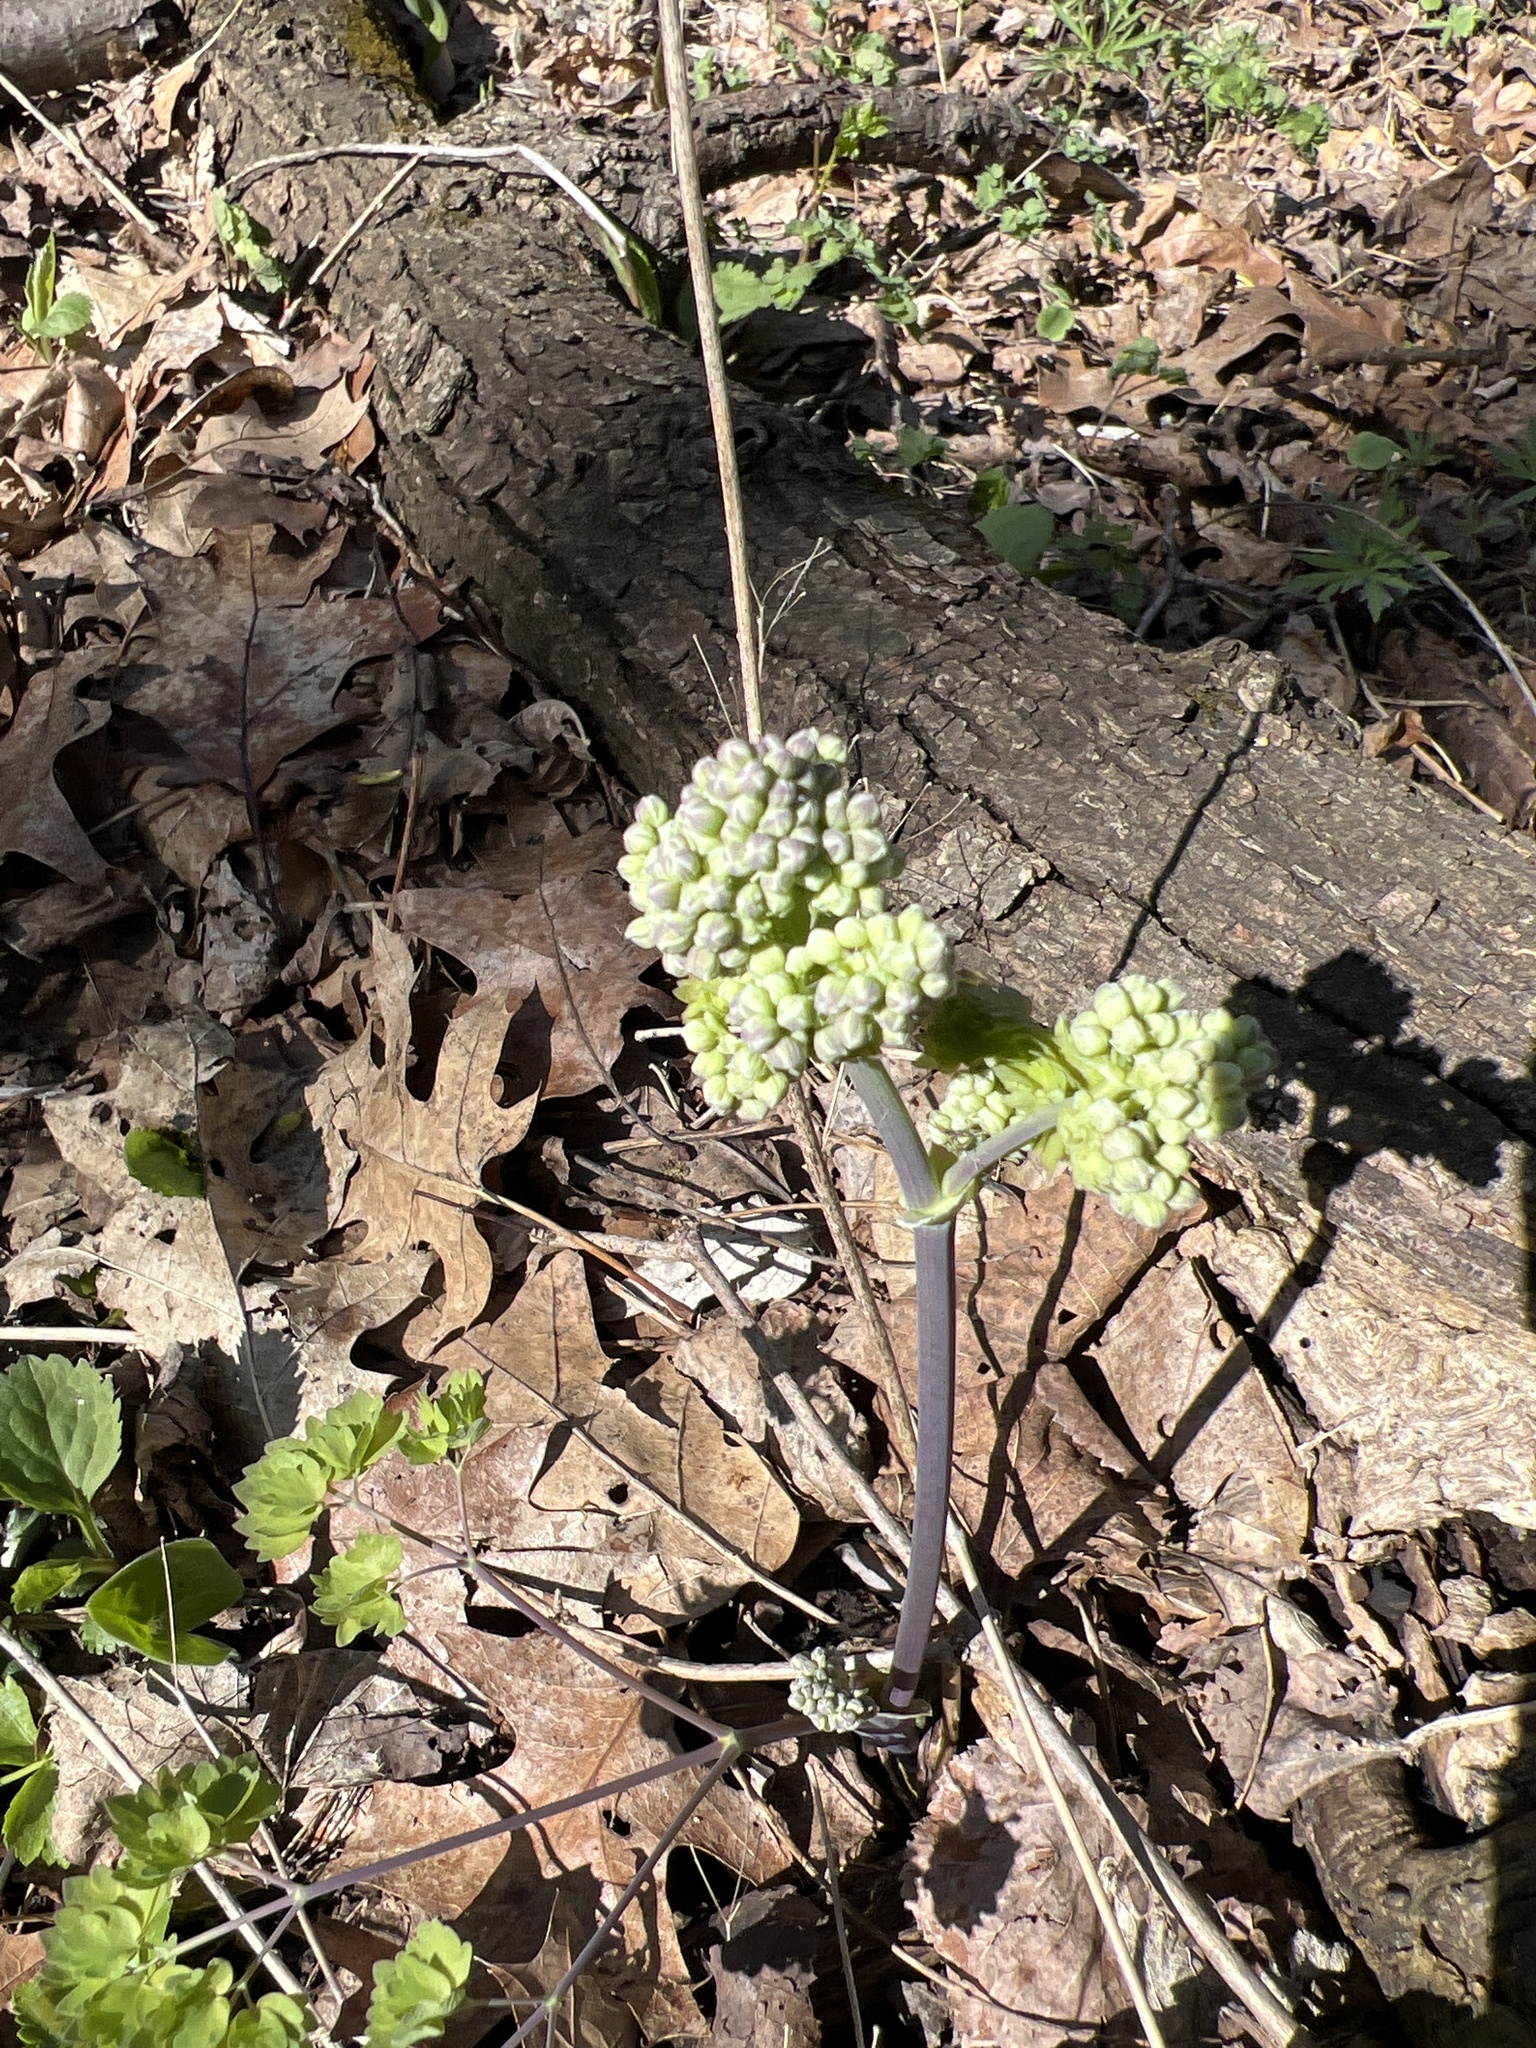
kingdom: Plantae
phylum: Tracheophyta
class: Magnoliopsida
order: Ranunculales
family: Ranunculaceae
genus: Thalictrum
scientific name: Thalictrum dioicum
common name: Early meadow-rue
